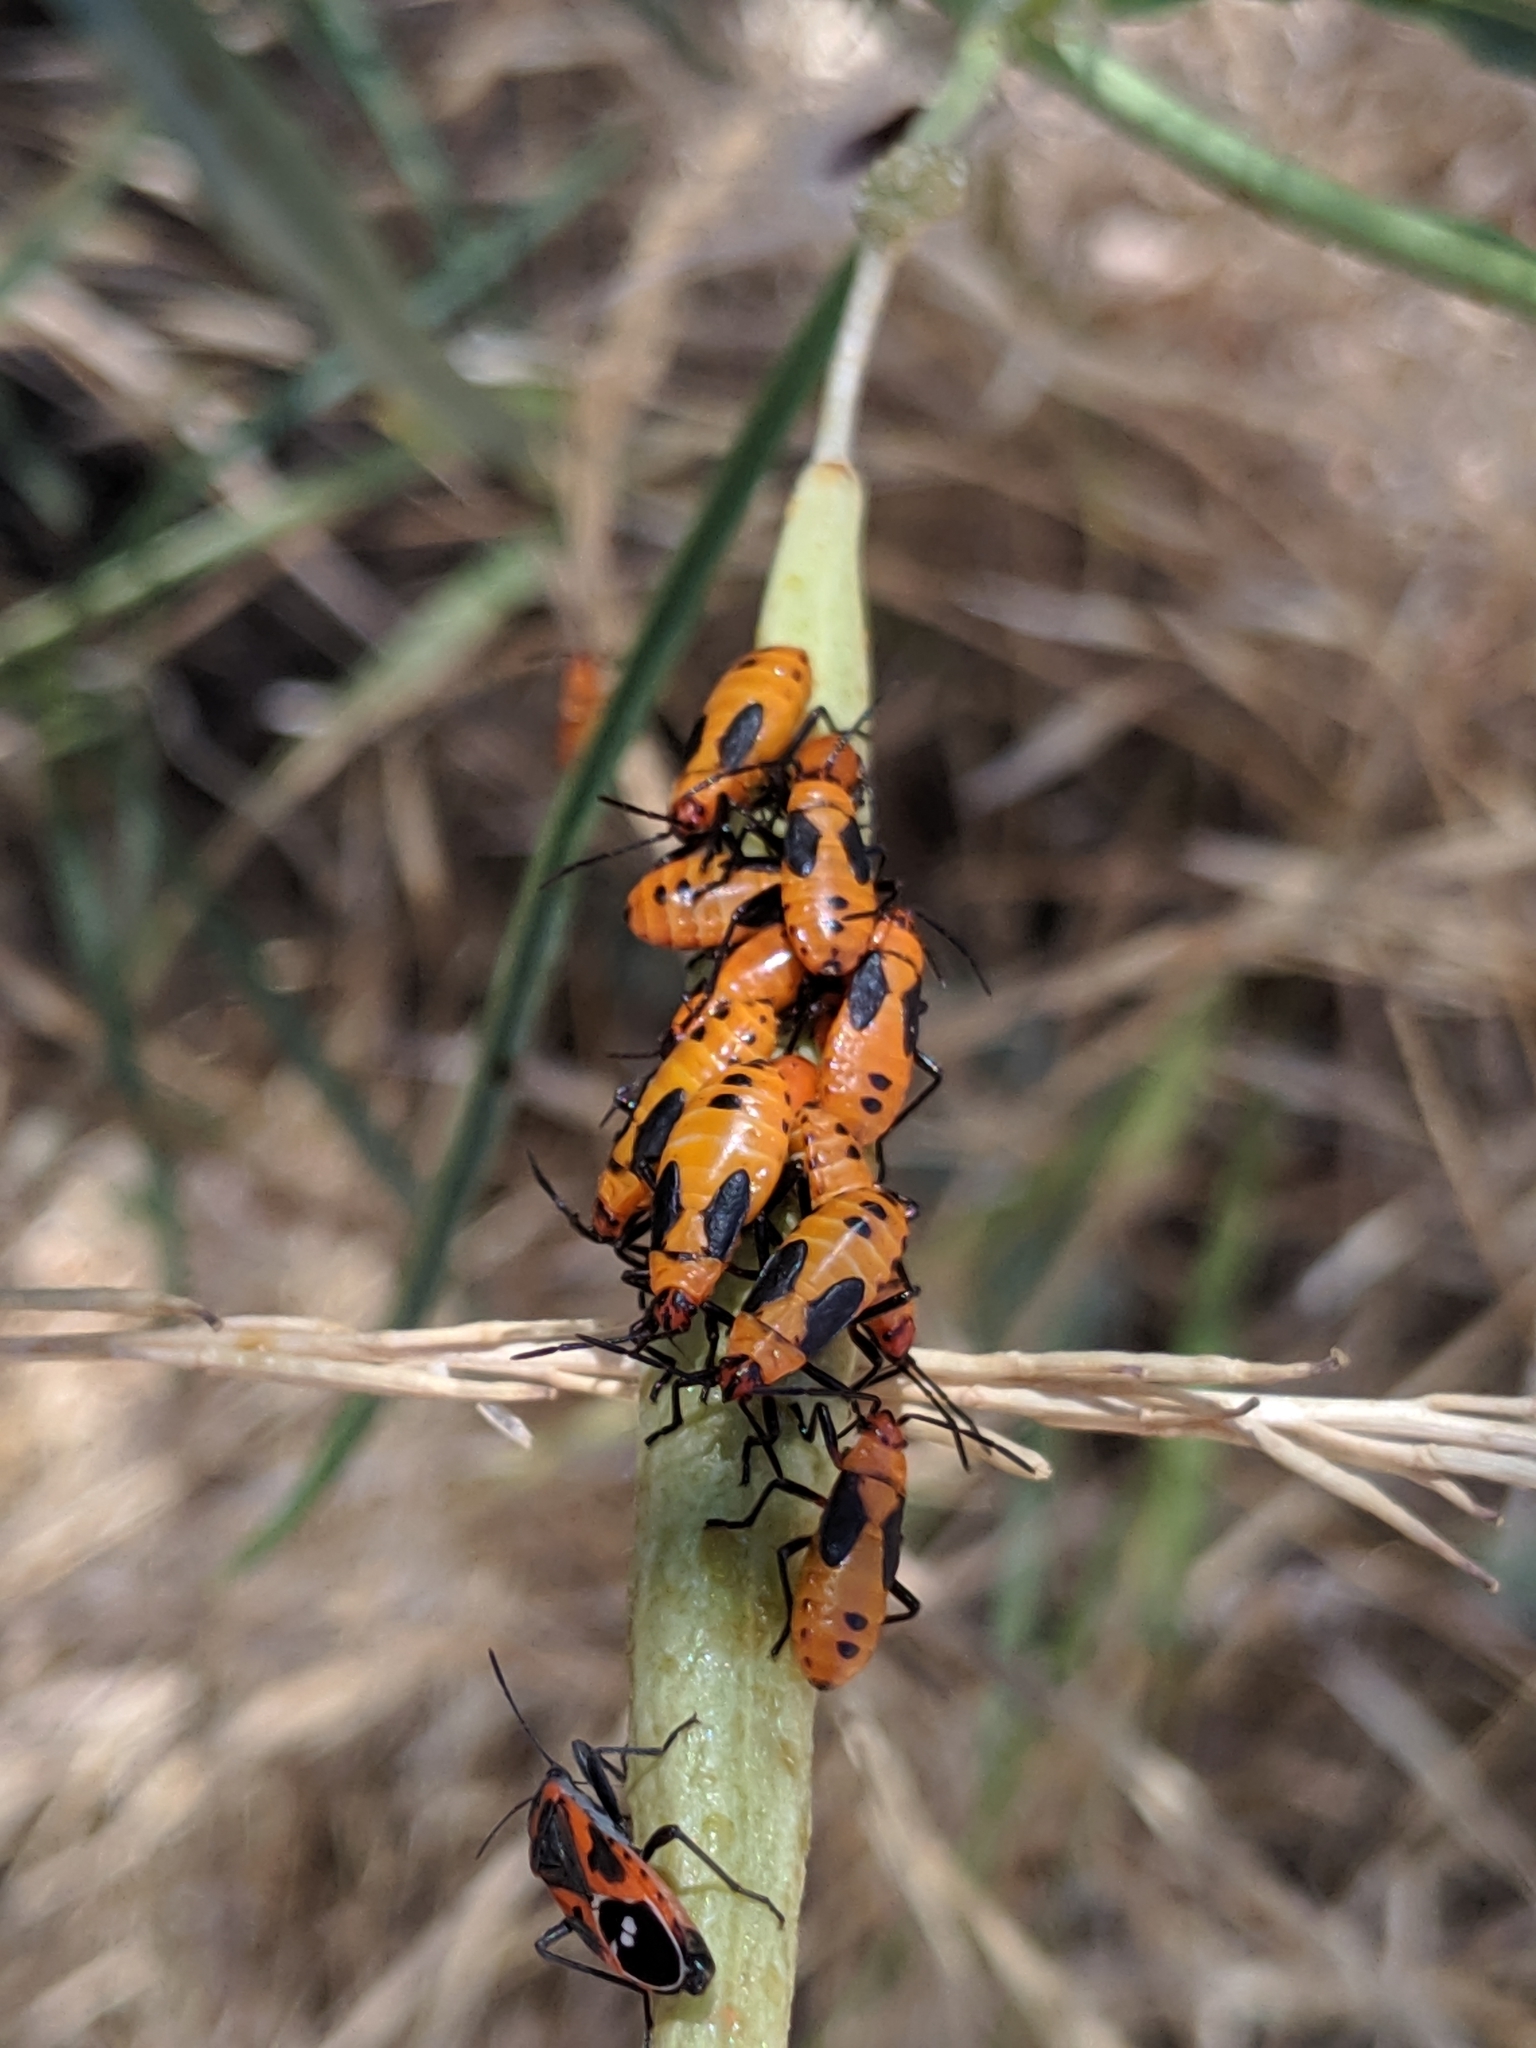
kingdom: Animalia
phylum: Arthropoda
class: Insecta
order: Hemiptera
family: Lygaeidae
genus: Oncopeltus
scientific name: Oncopeltus fasciatus
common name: Large milkweed bug
